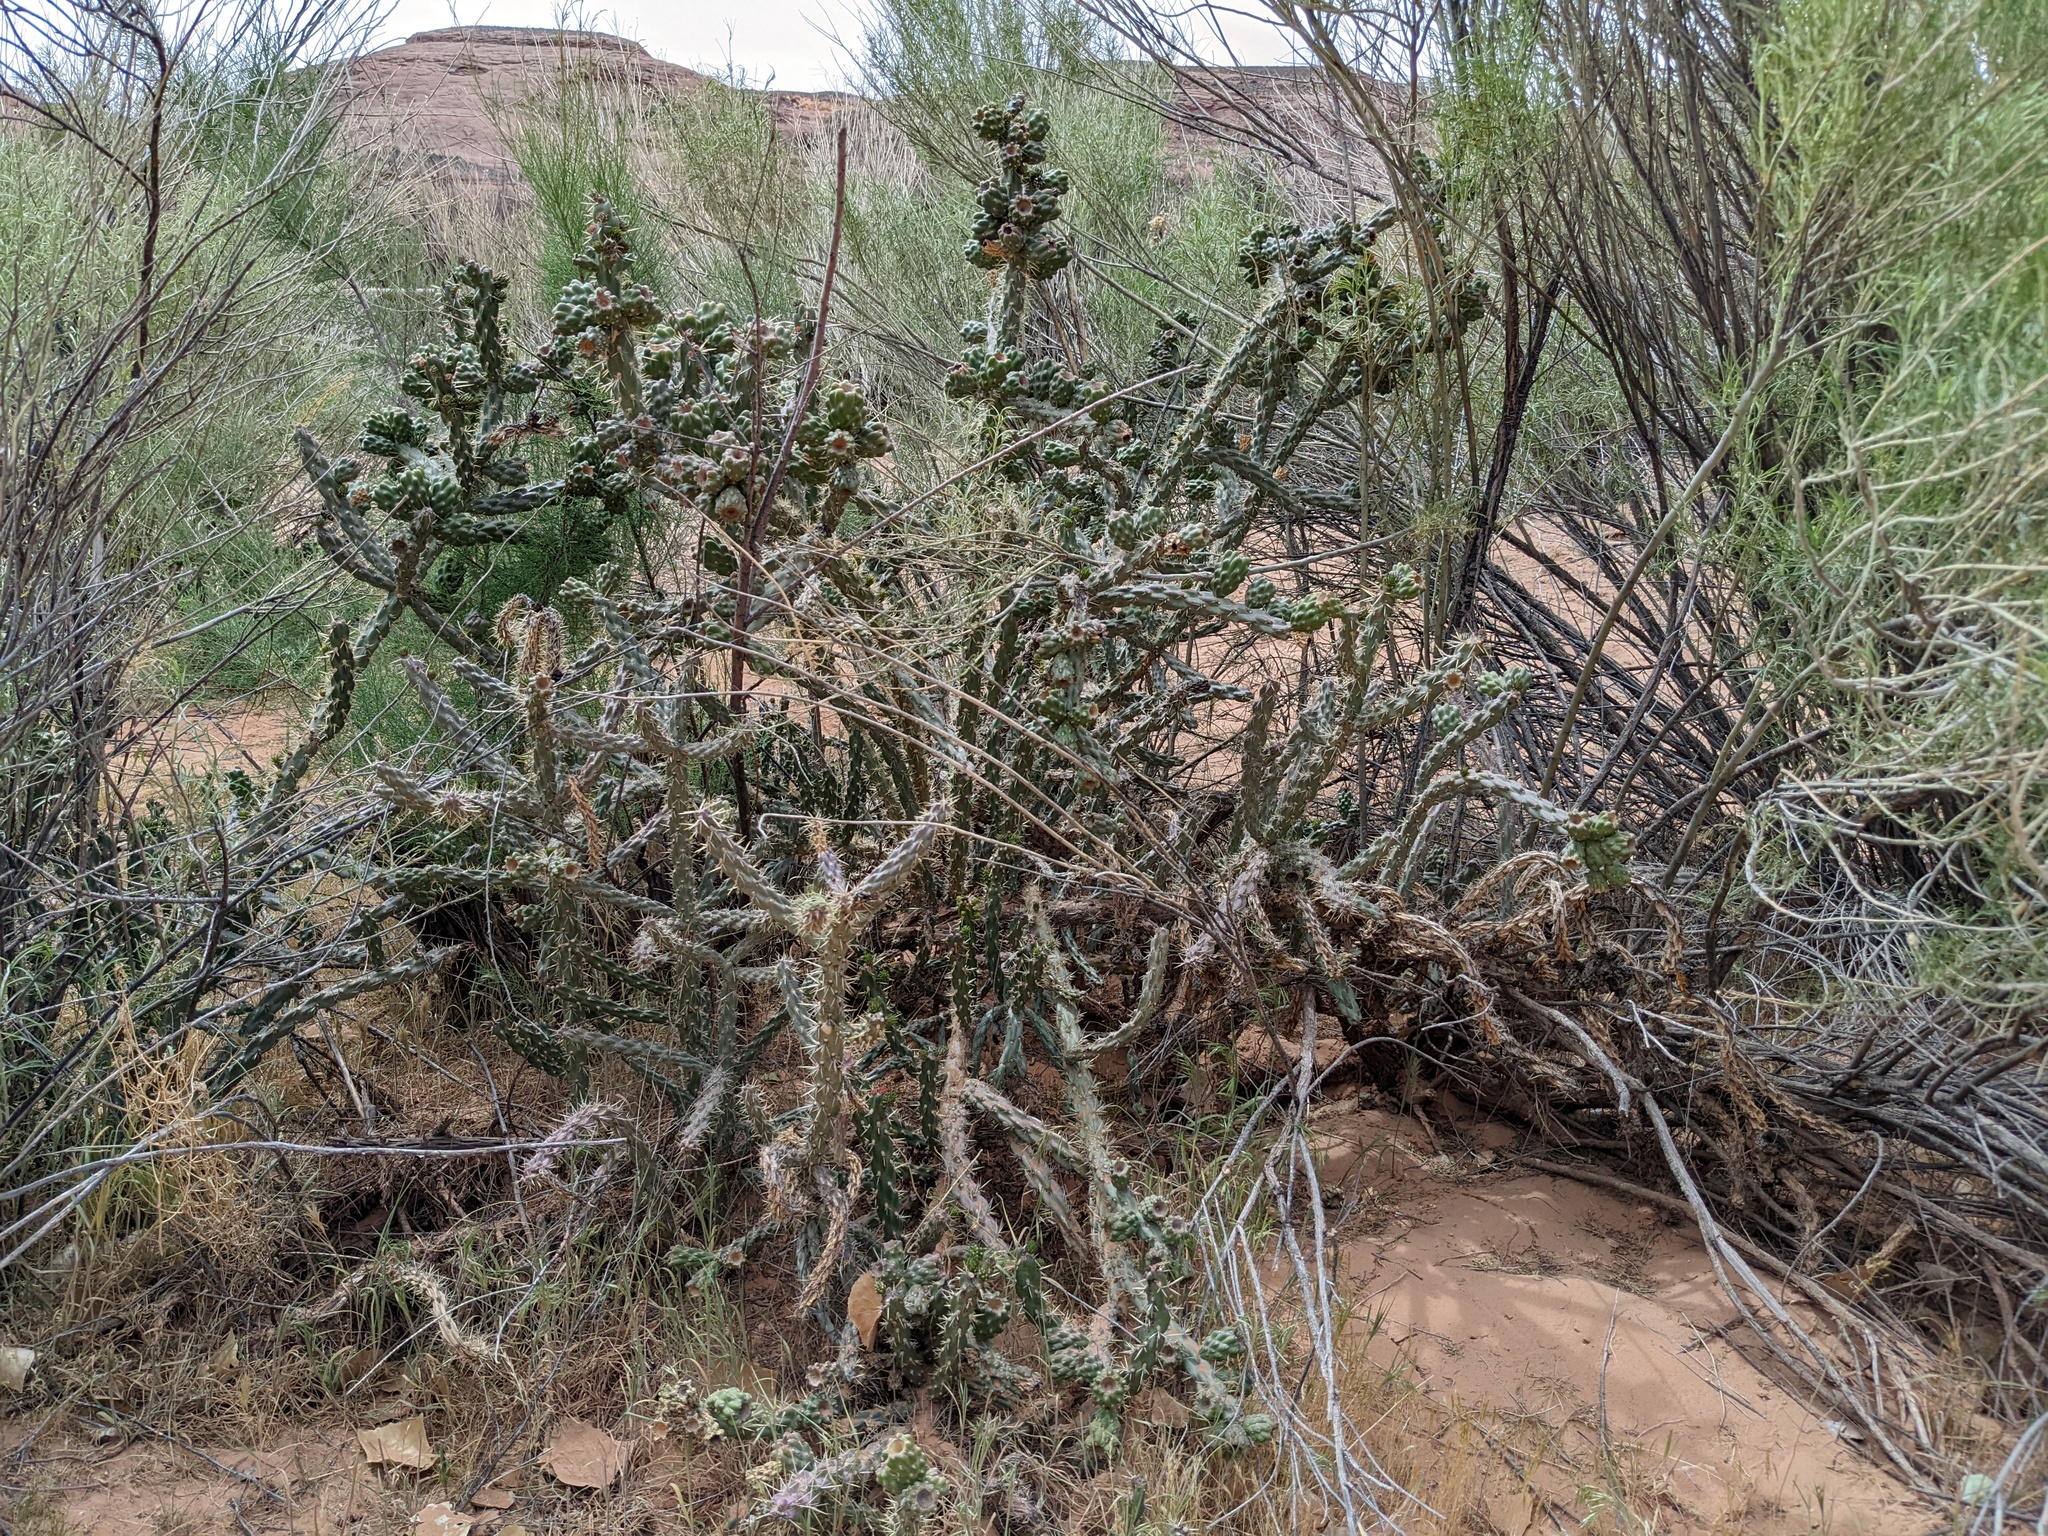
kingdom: Plantae
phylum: Tracheophyta
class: Magnoliopsida
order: Caryophyllales
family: Cactaceae
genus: Cylindropuntia
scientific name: Cylindropuntia viridiflora
